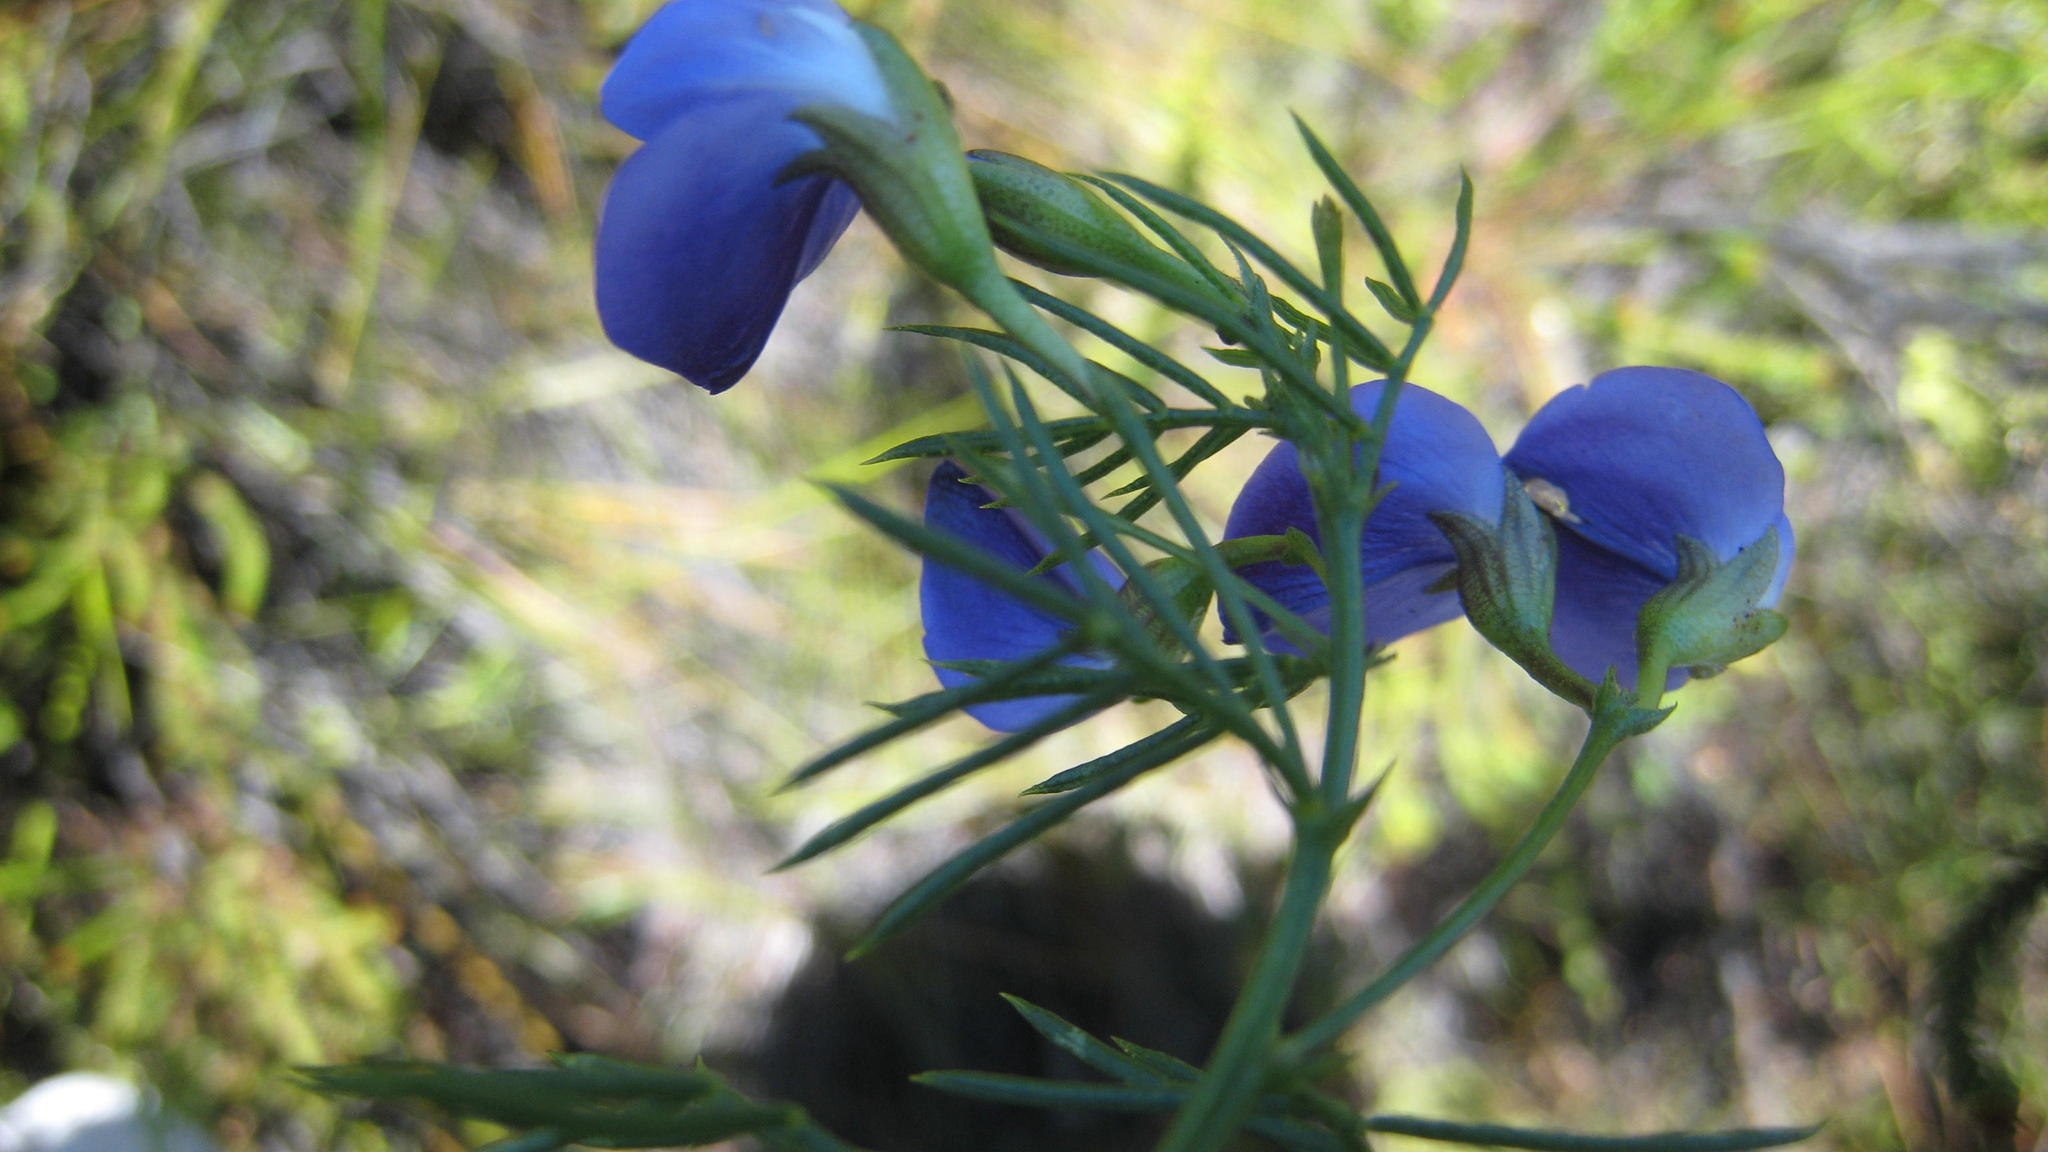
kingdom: Plantae
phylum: Tracheophyta
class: Magnoliopsida
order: Fabales
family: Fabaceae
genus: Psoralea
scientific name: Psoralea laevigata
